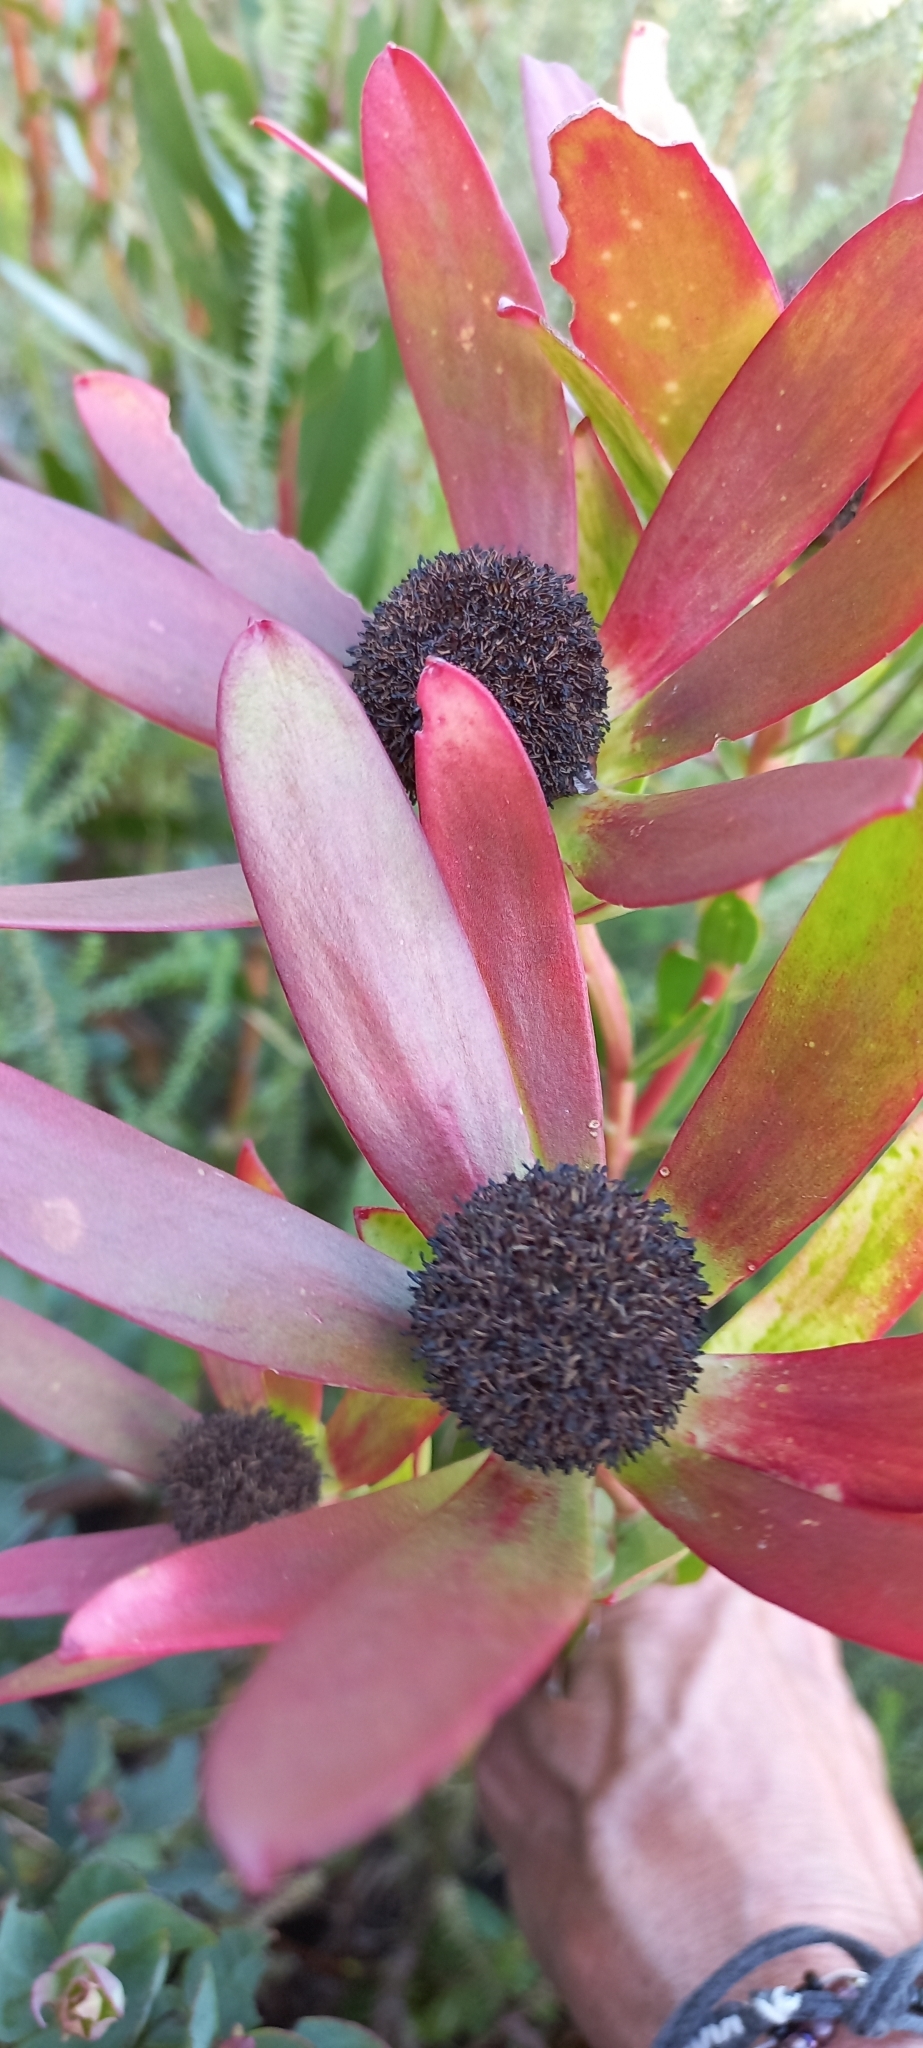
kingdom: Plantae
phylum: Tracheophyta
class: Magnoliopsida
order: Proteales
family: Proteaceae
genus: Leucadendron
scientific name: Leucadendron gandogeri
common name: Broad-leaf conebush
